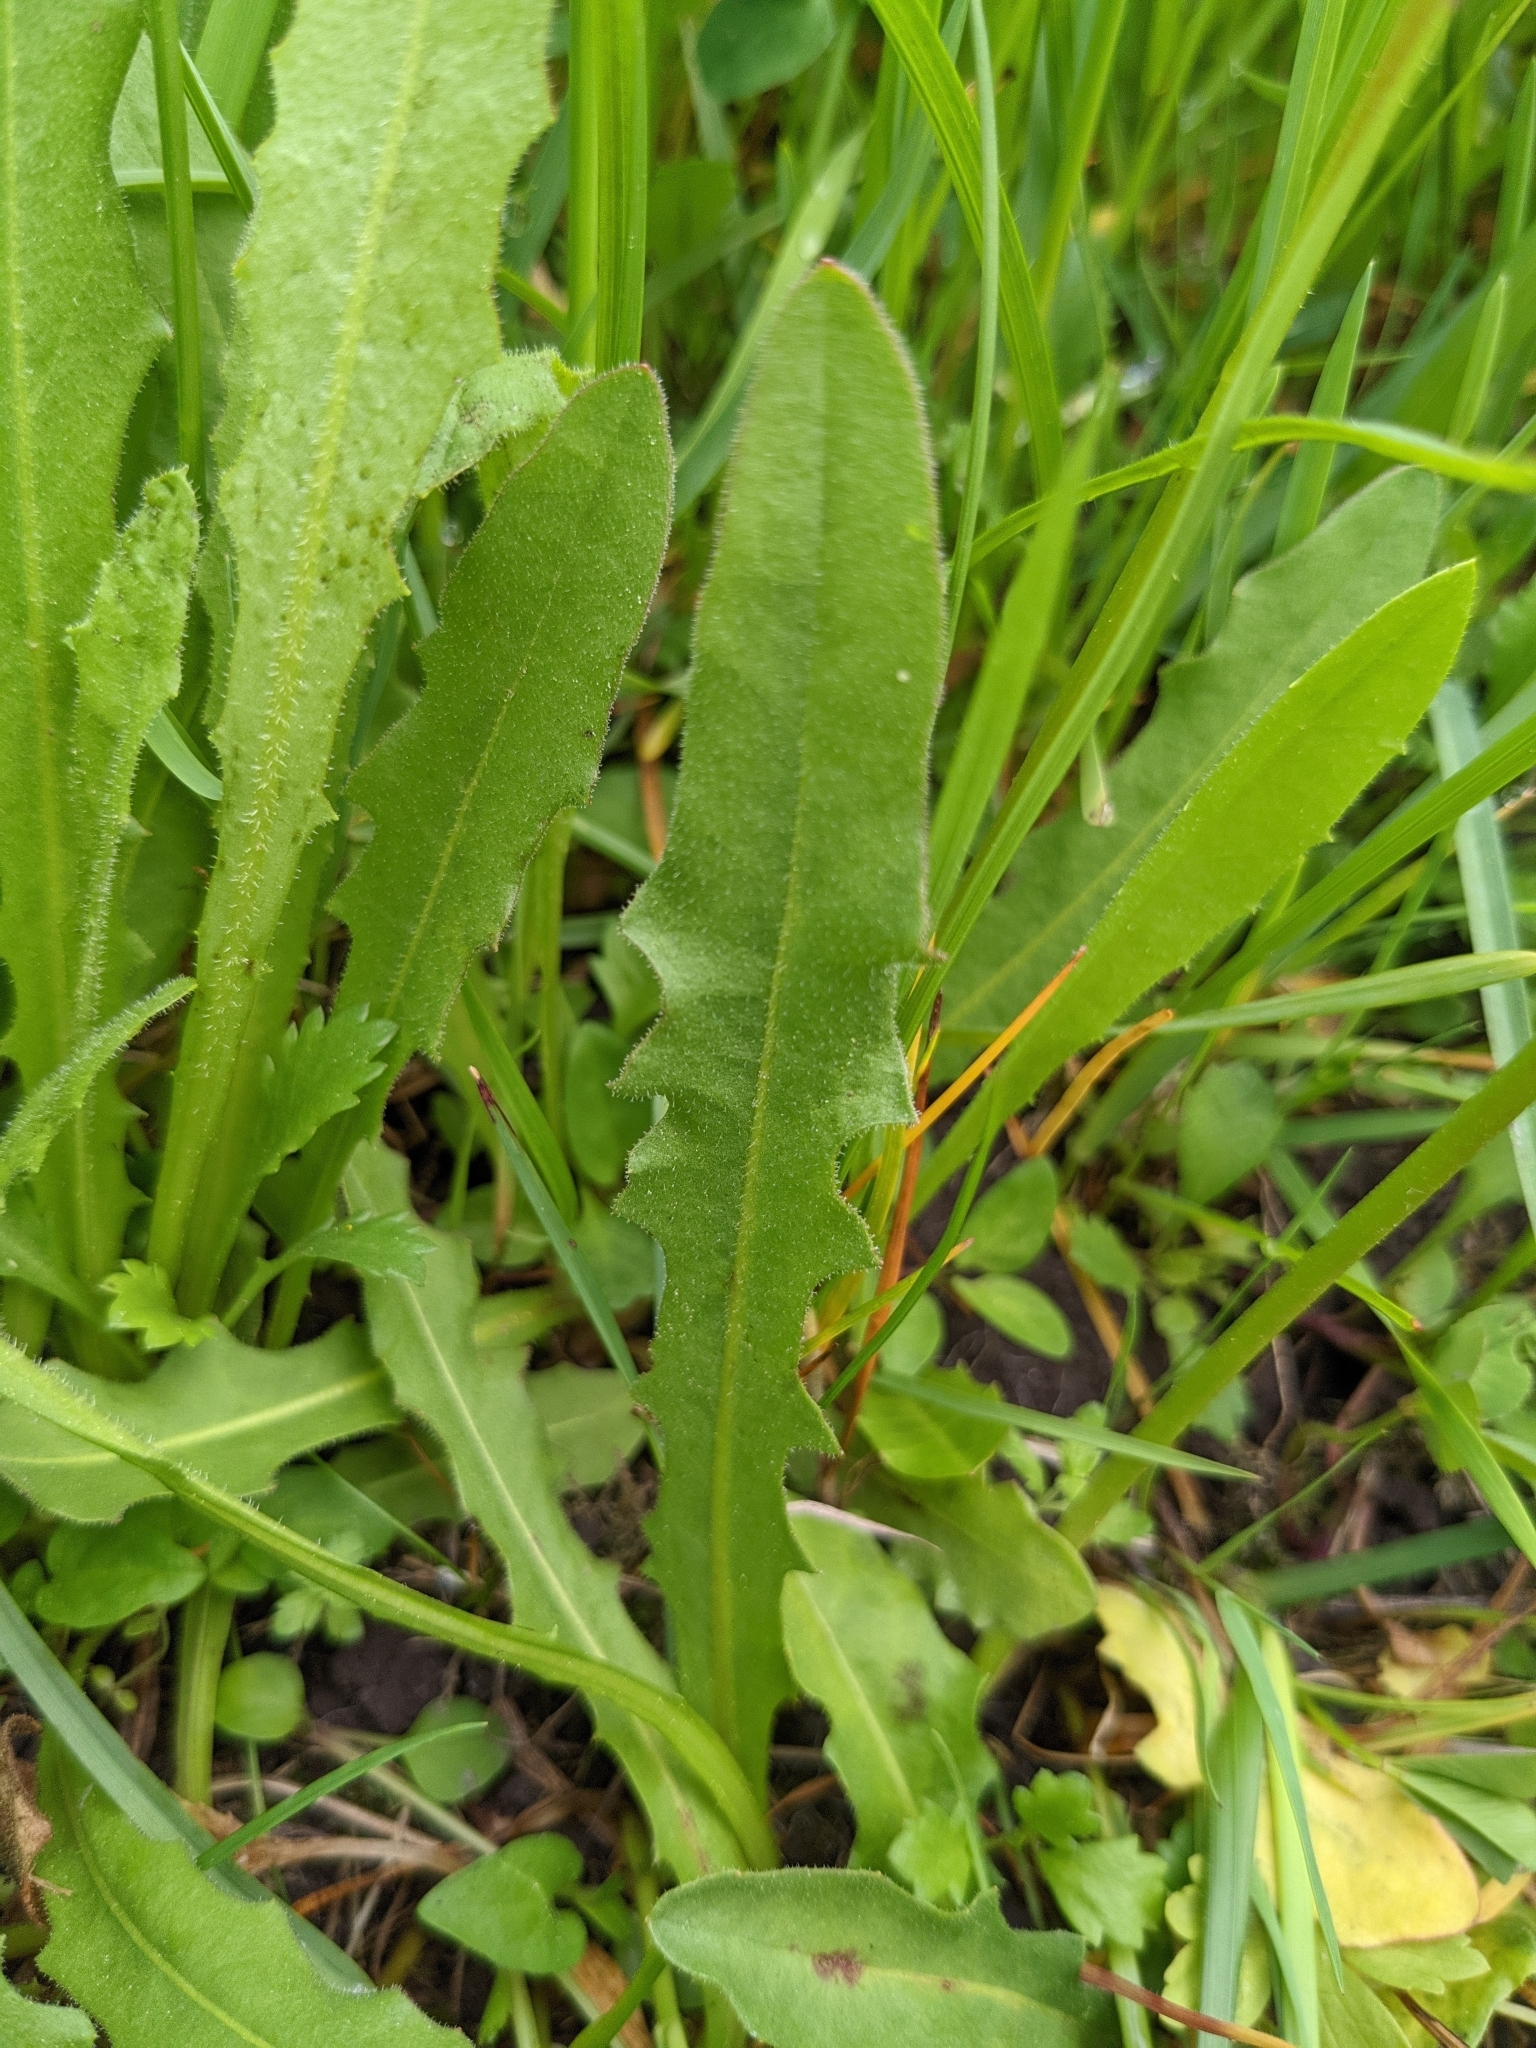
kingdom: Plantae
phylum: Tracheophyta
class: Magnoliopsida
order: Asterales
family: Asteraceae
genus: Leontodon
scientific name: Leontodon hispidus
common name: Rough hawkbit
